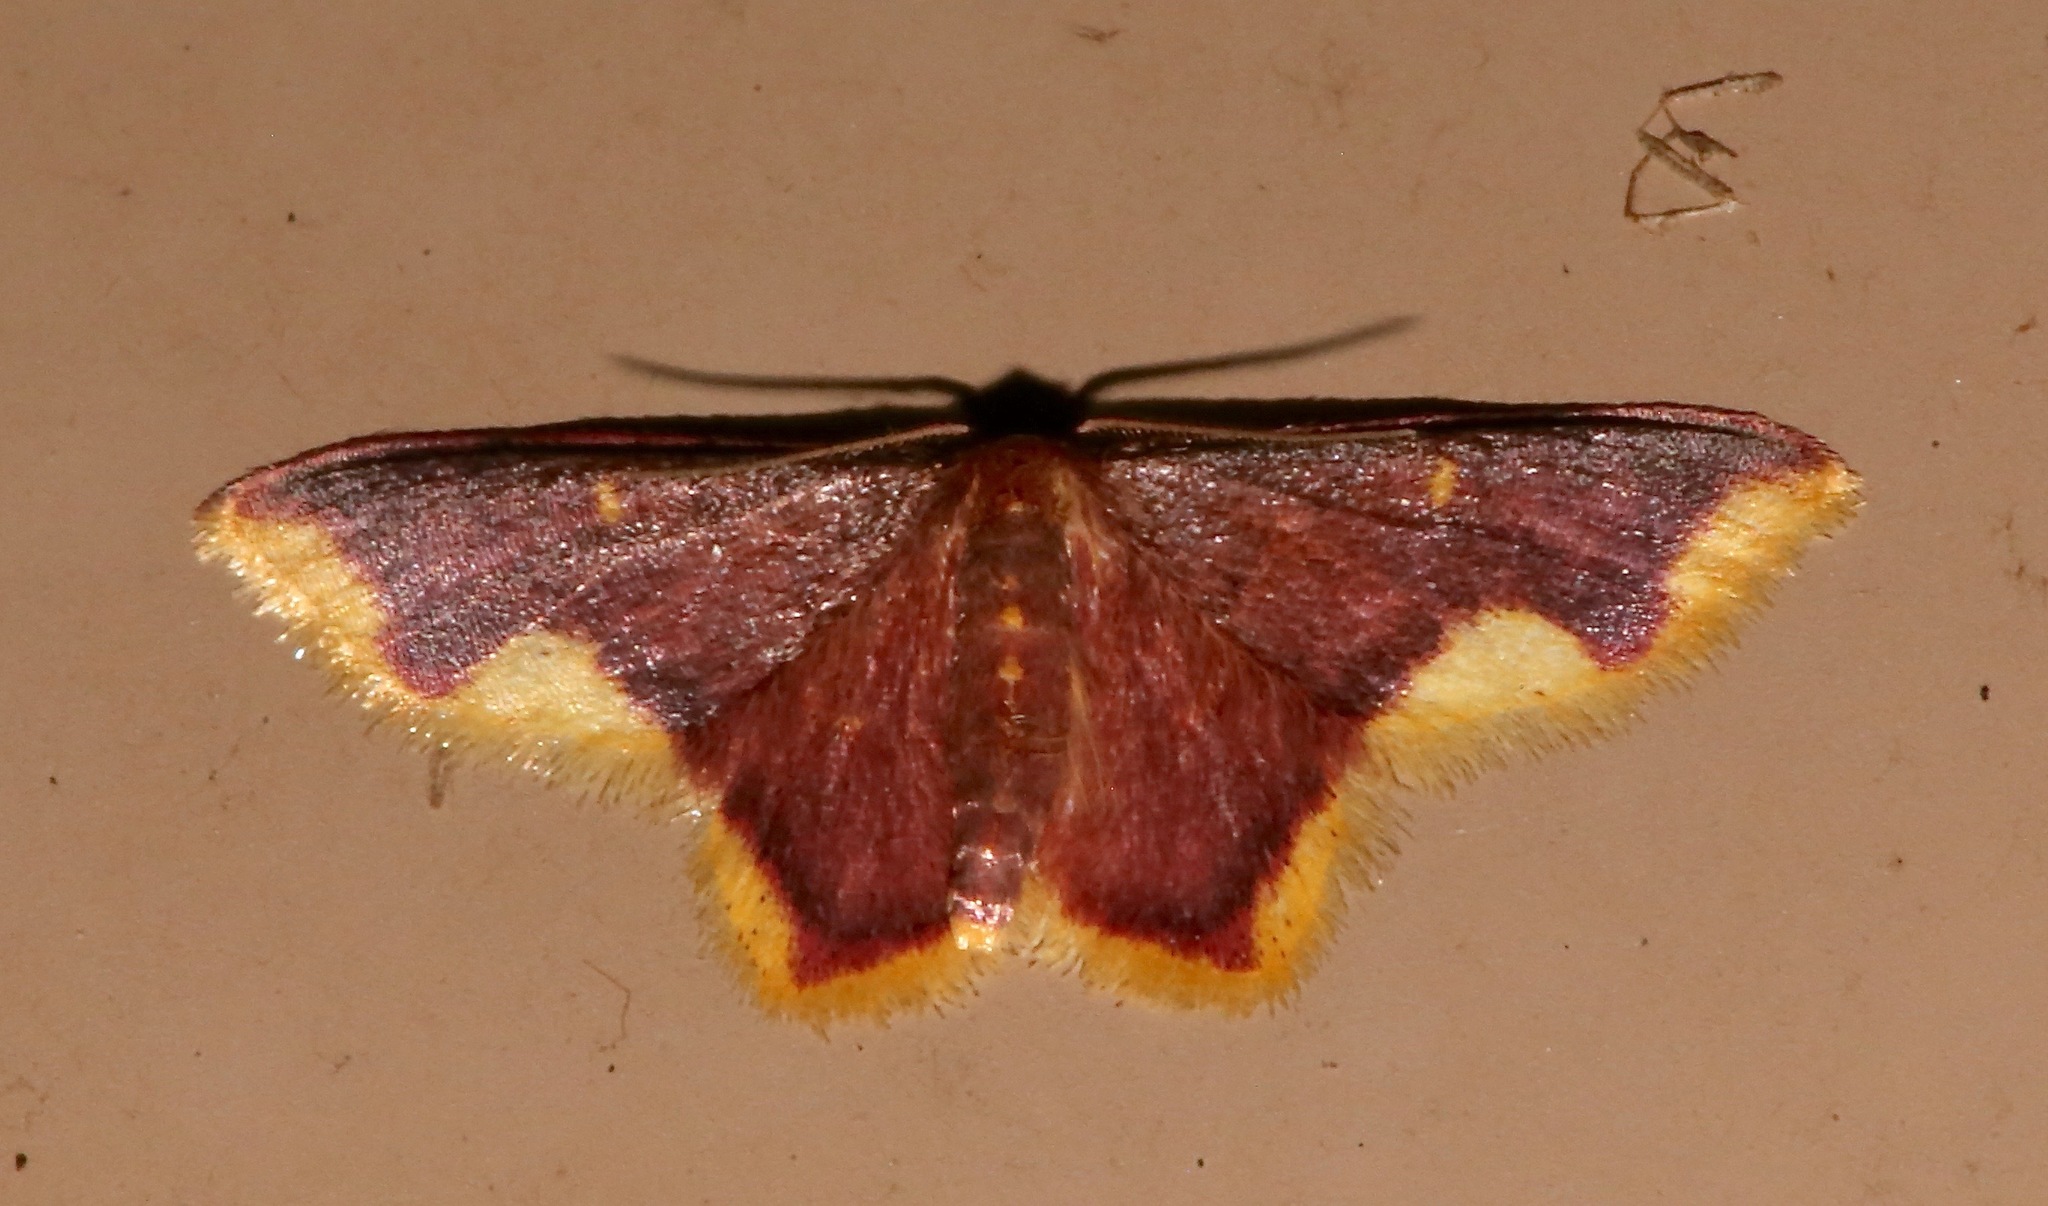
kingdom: Animalia
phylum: Arthropoda
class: Insecta
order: Lepidoptera
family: Geometridae
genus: Lophosis
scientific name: Lophosis labeculata
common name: Stained lophosis moth
